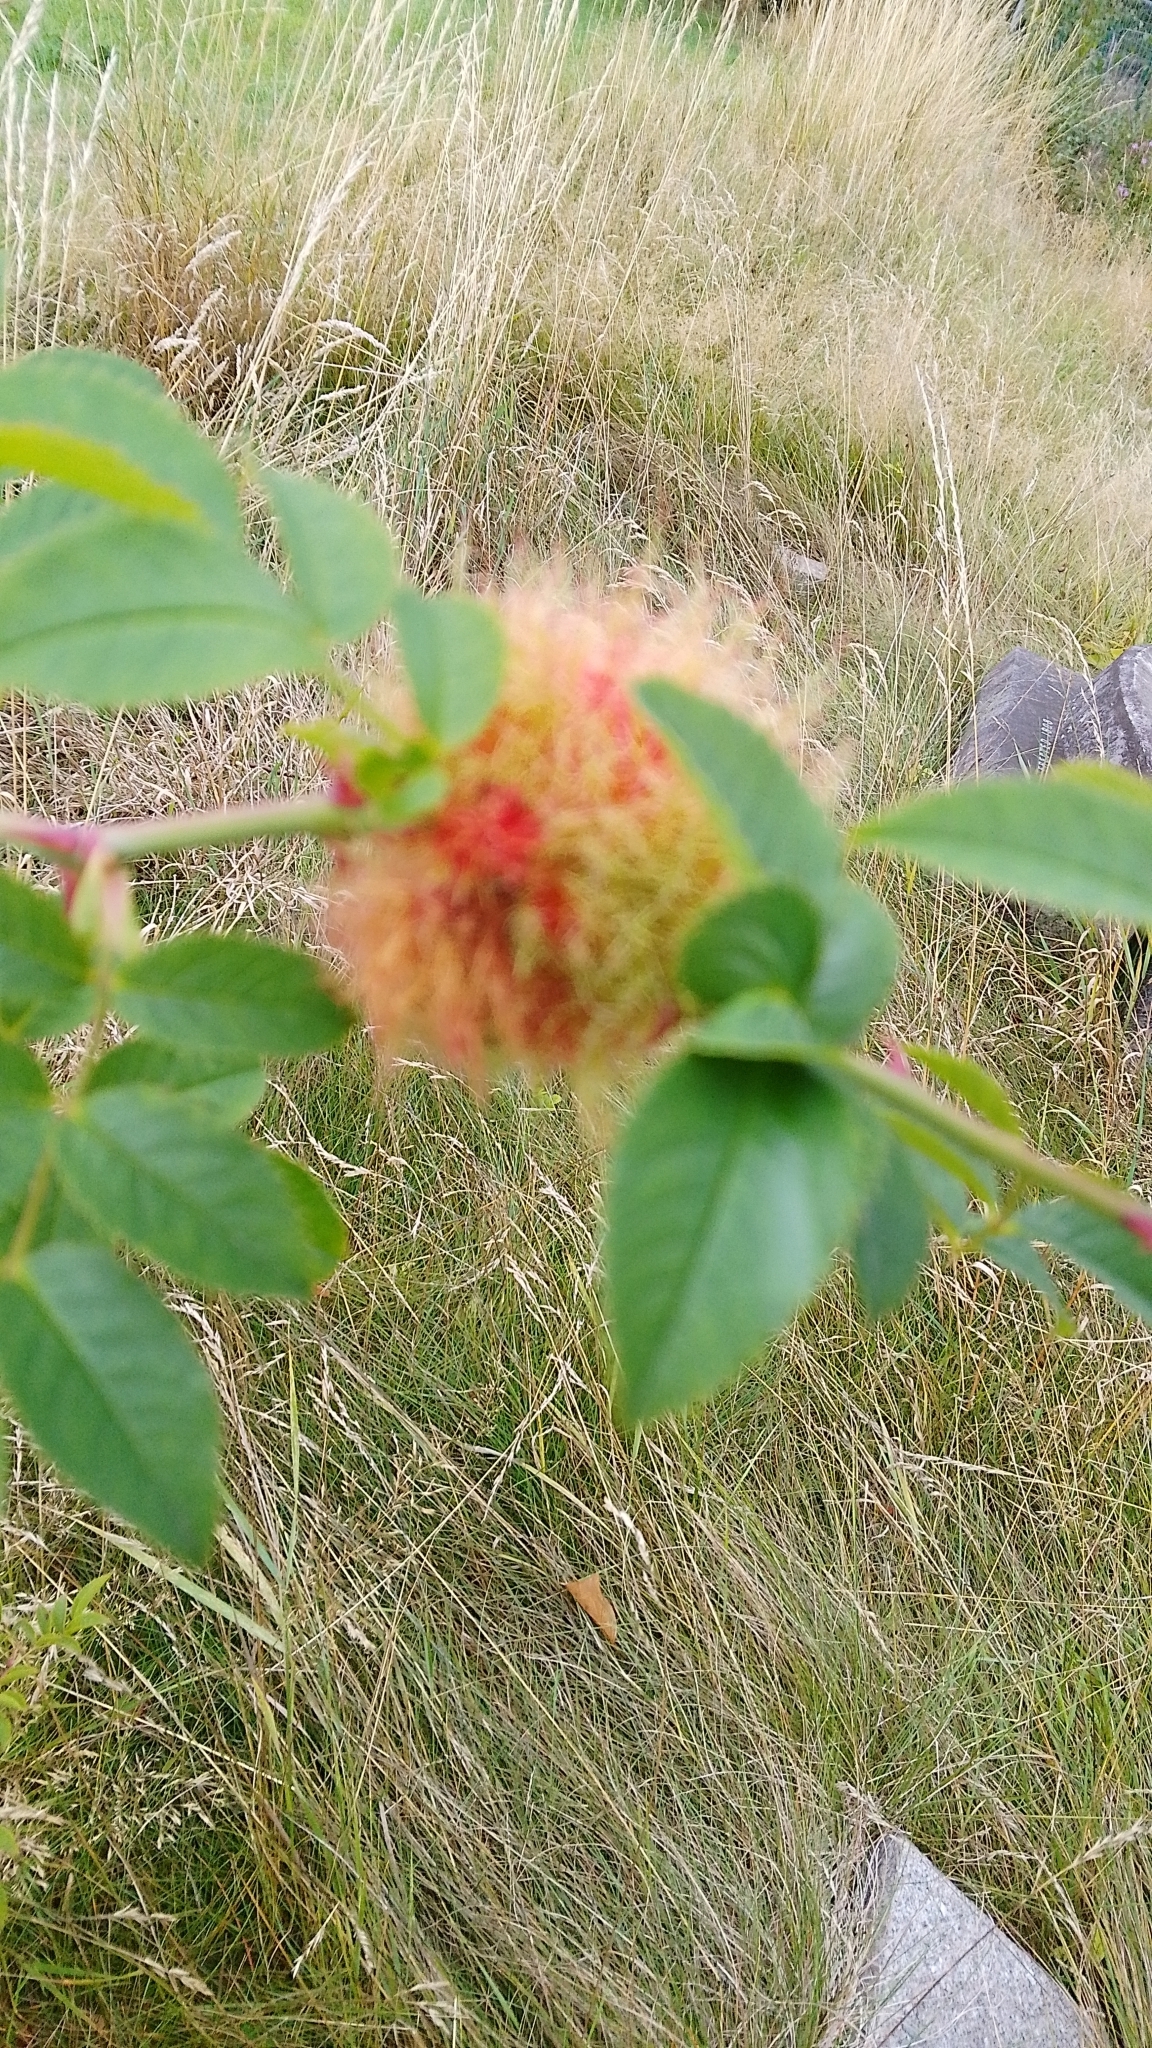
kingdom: Animalia
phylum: Arthropoda
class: Insecta
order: Hymenoptera
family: Cynipidae
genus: Diplolepis
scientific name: Diplolepis rosae
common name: Bedeguar gall
